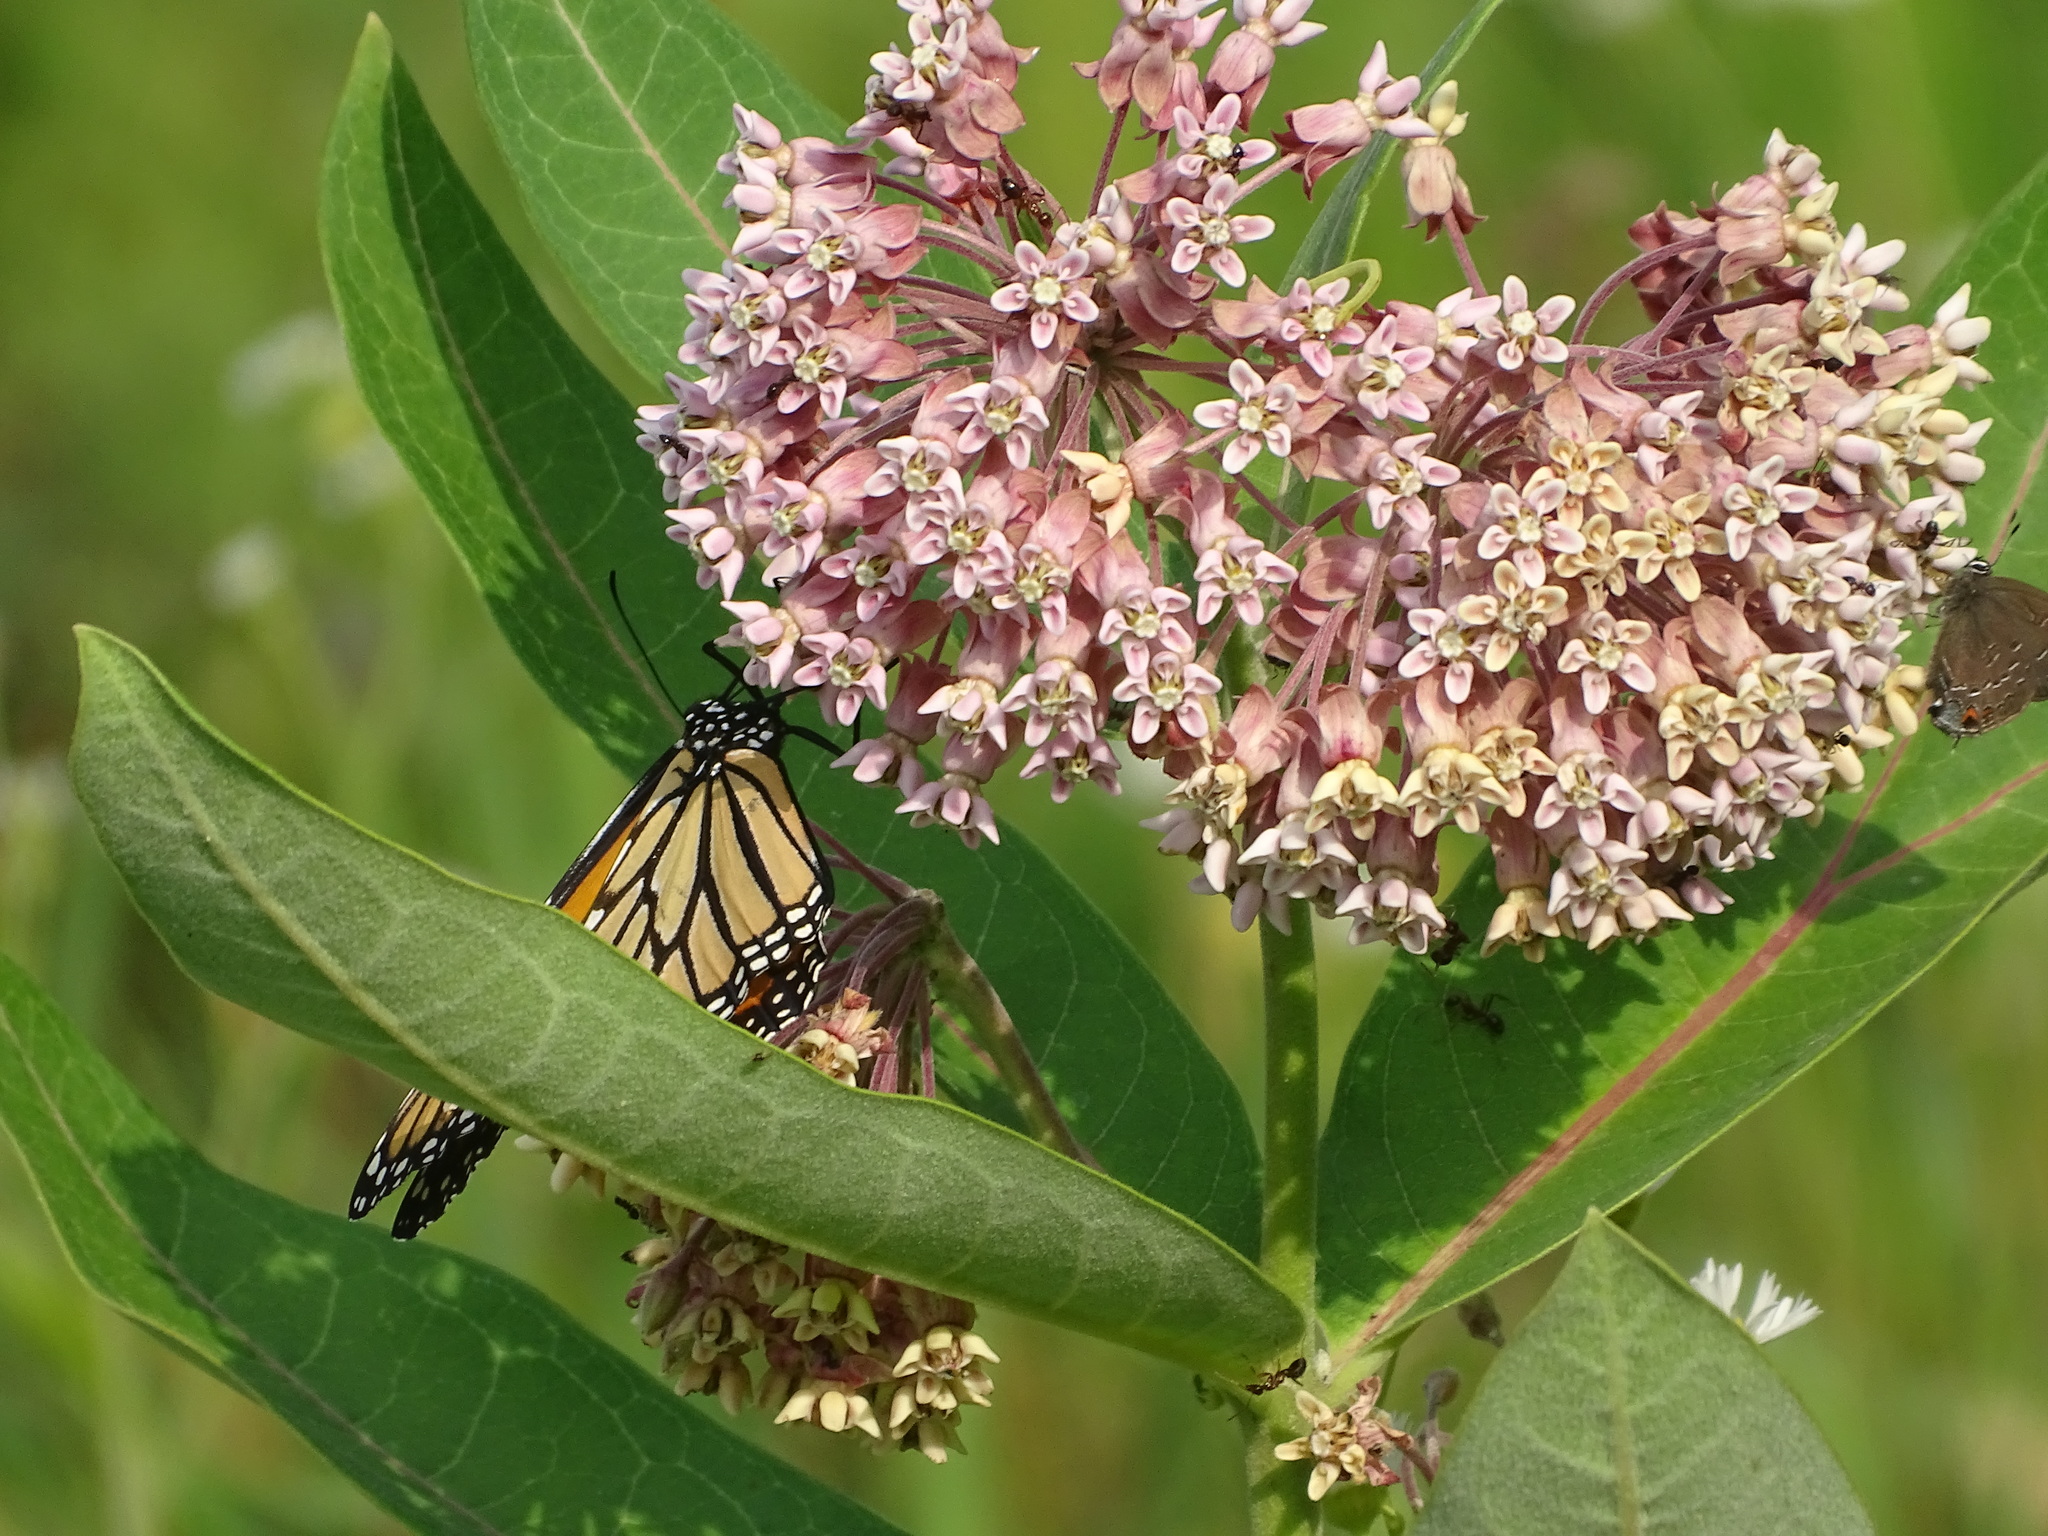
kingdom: Animalia
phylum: Arthropoda
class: Insecta
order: Lepidoptera
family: Nymphalidae
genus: Danaus
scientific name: Danaus plexippus
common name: Monarch
